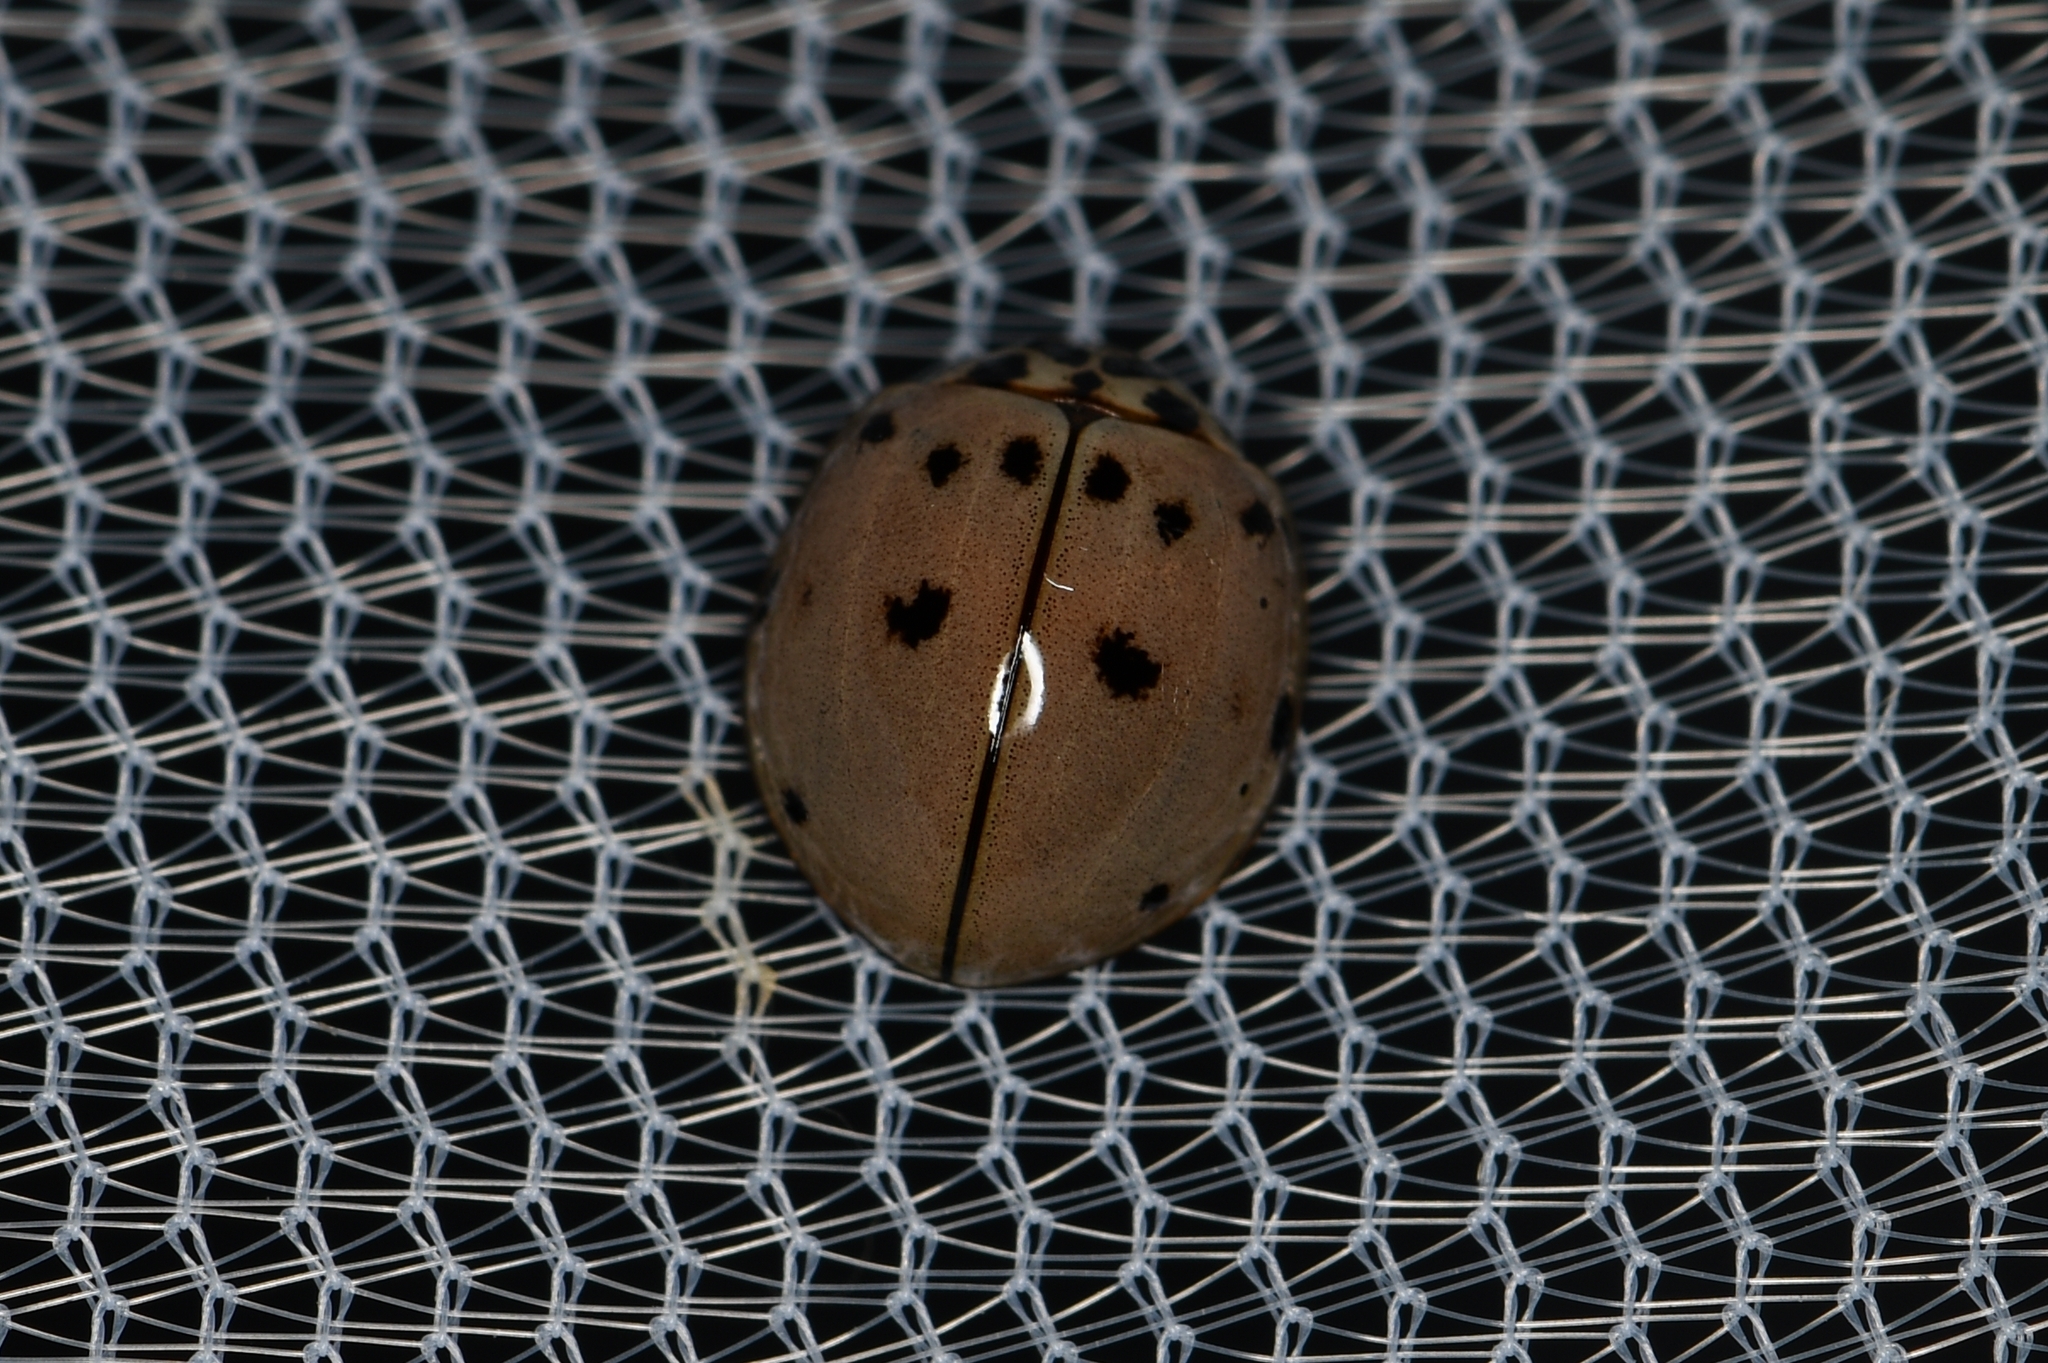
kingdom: Animalia
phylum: Arthropoda
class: Insecta
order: Coleoptera
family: Coccinellidae
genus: Olla
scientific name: Olla v-nigrum
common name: Ashy gray lady beetle
